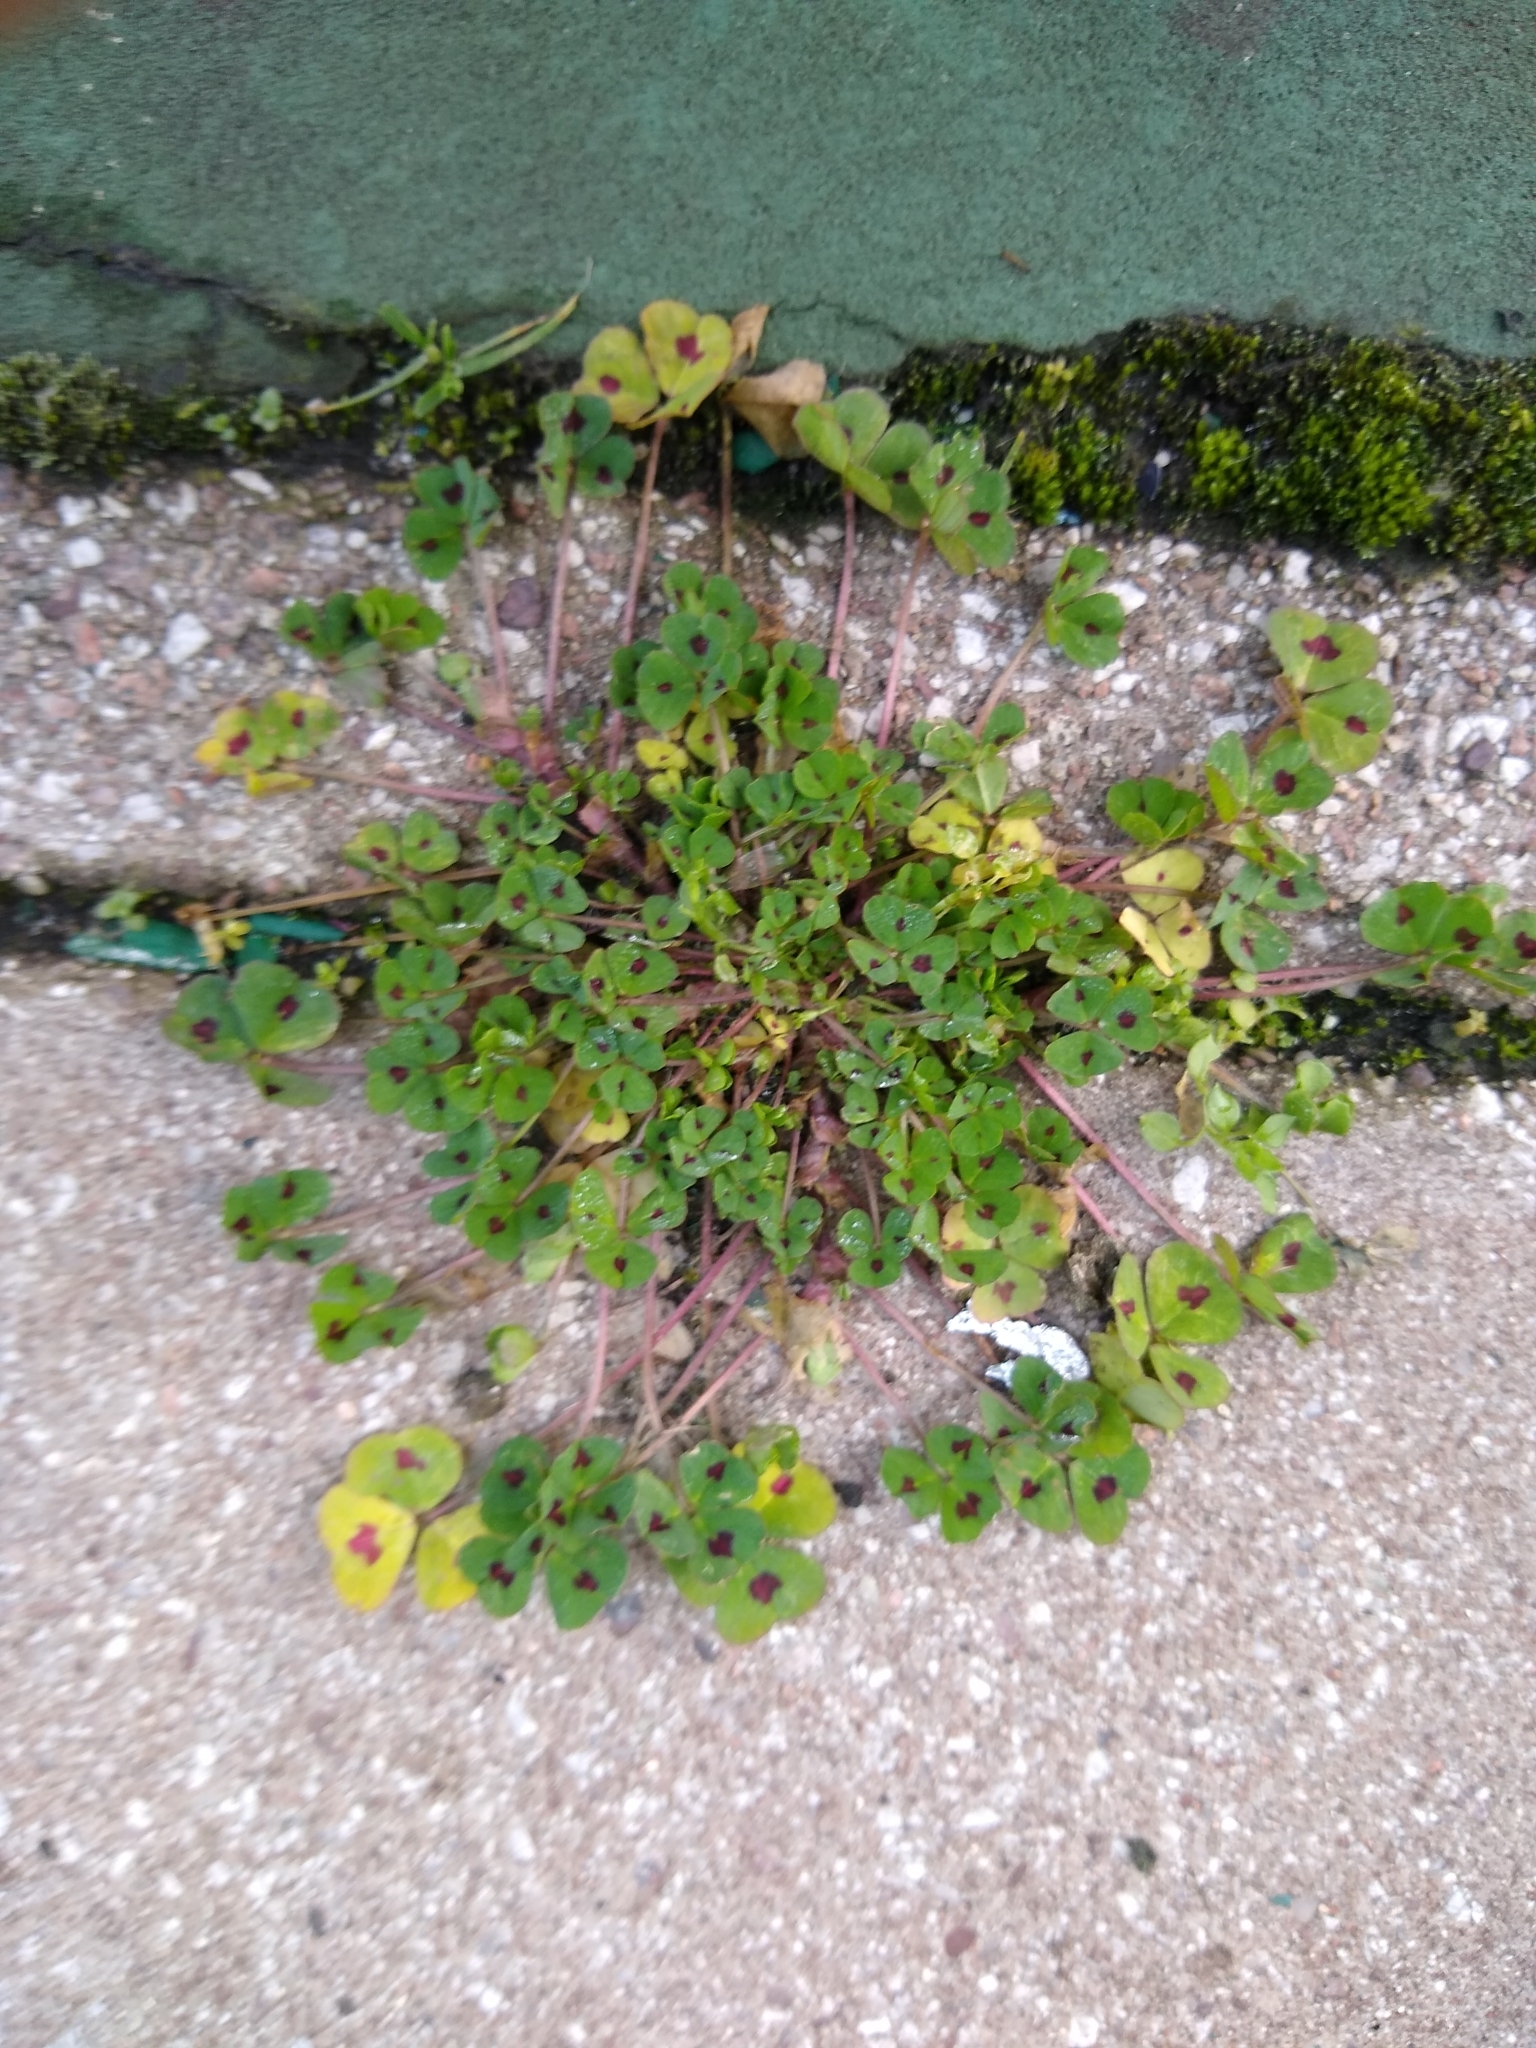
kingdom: Plantae
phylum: Tracheophyta
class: Magnoliopsida
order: Fabales
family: Fabaceae
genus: Medicago
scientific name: Medicago arabica
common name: Spotted medick
